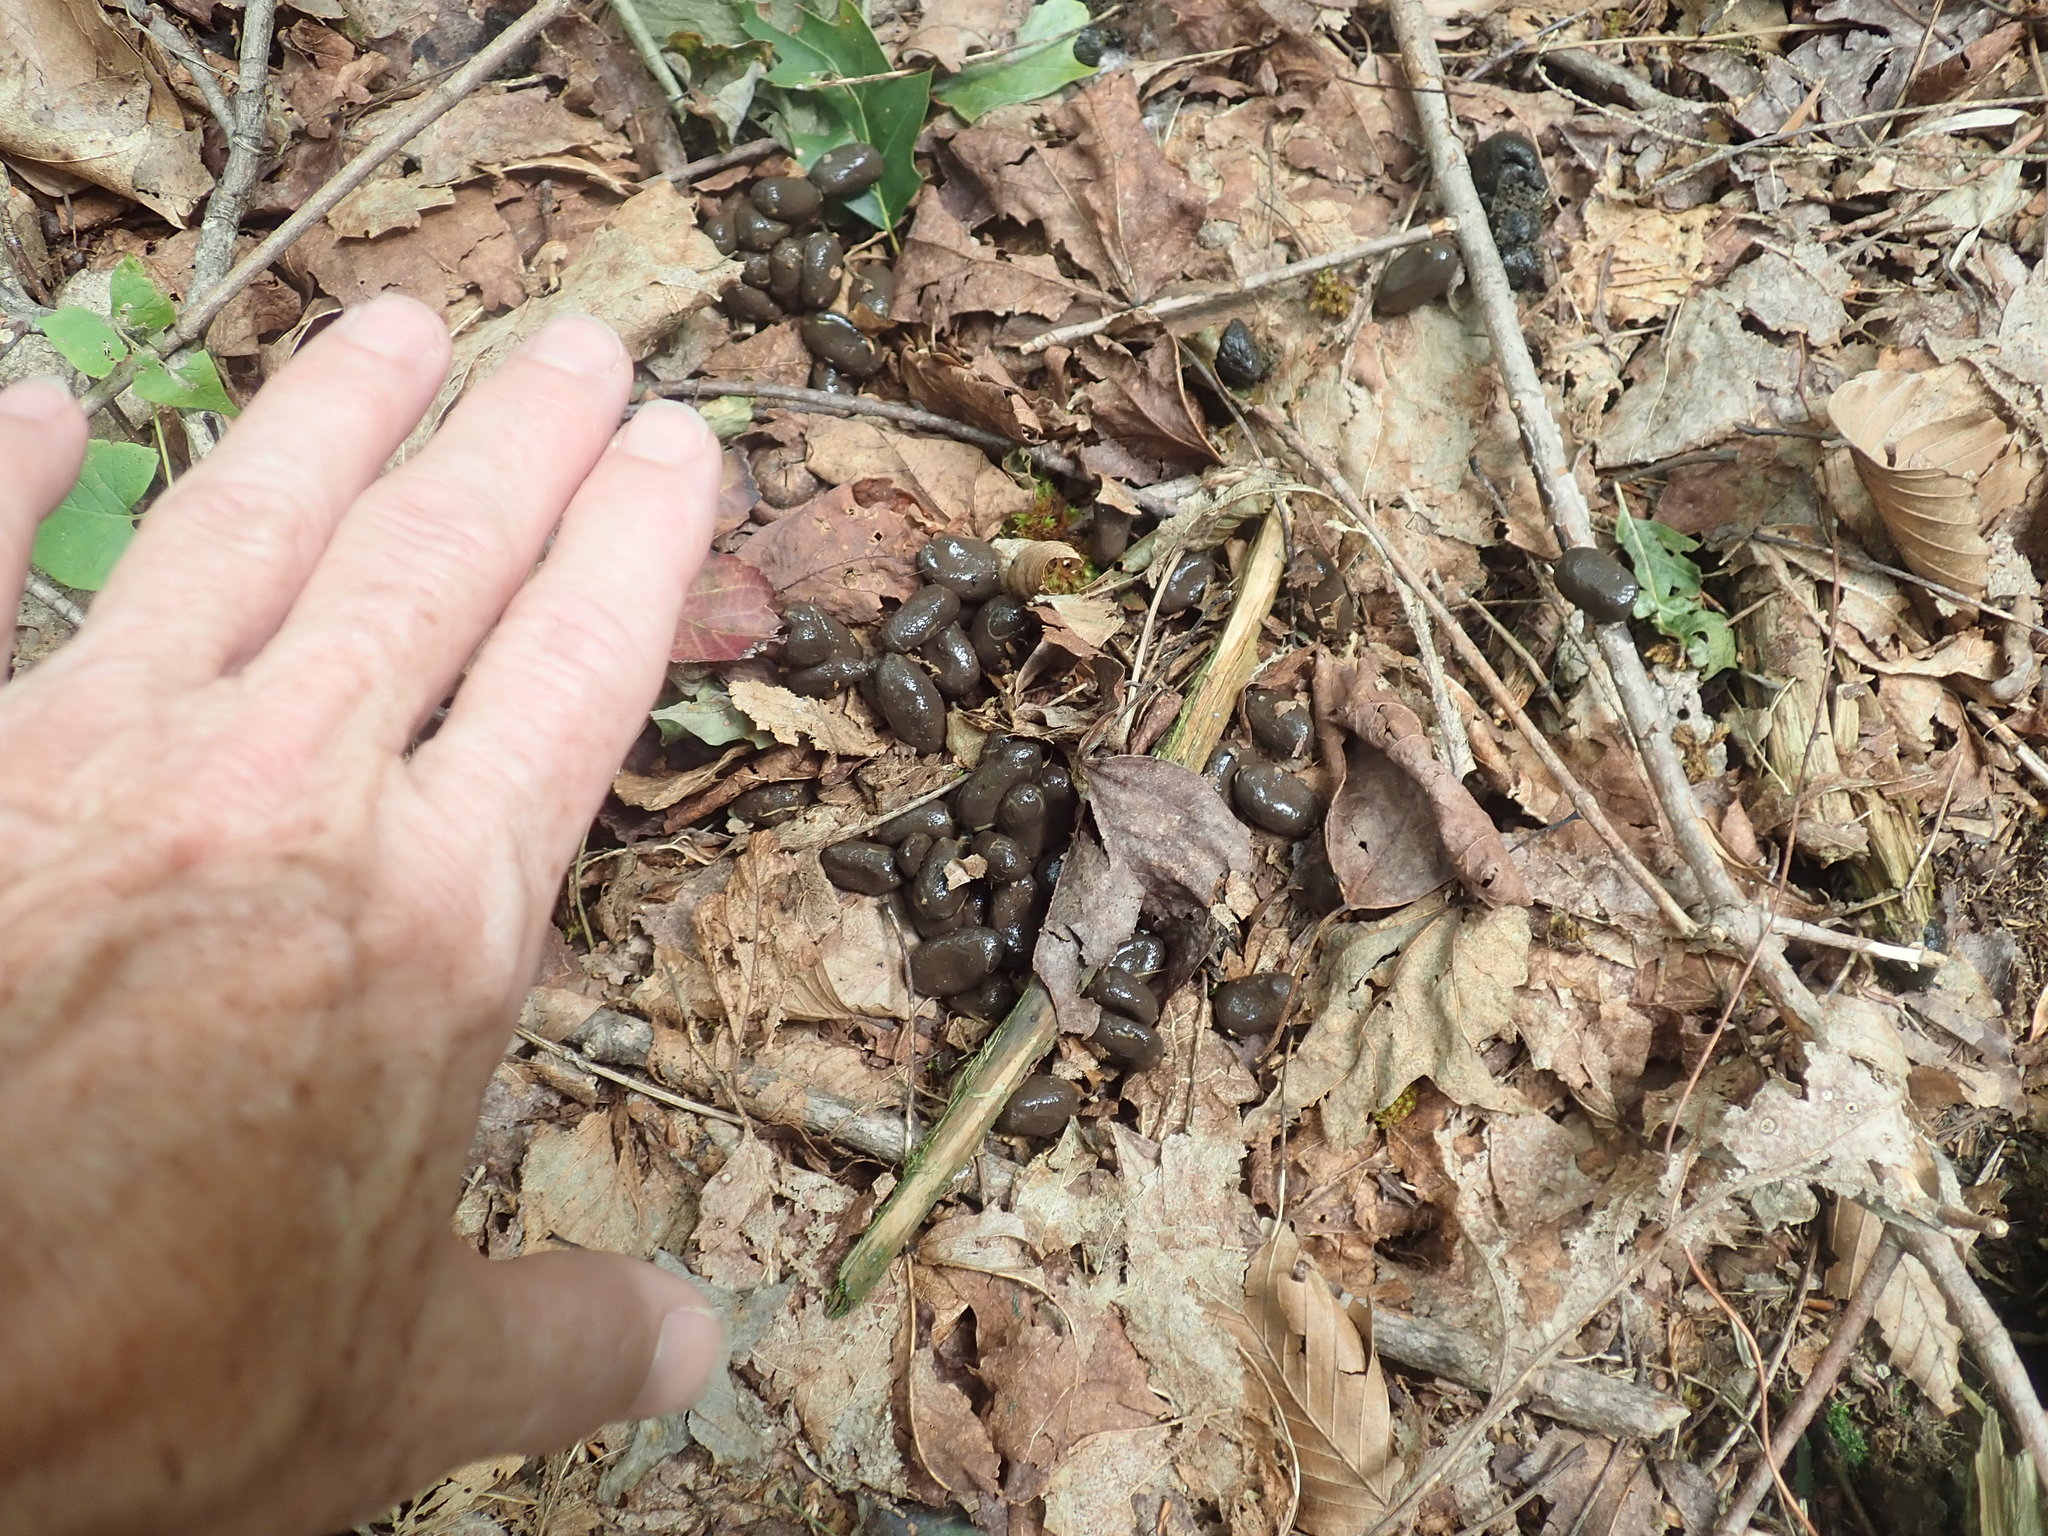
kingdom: Animalia
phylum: Chordata
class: Mammalia
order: Artiodactyla
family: Cervidae
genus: Odocoileus
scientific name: Odocoileus virginianus
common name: White-tailed deer
